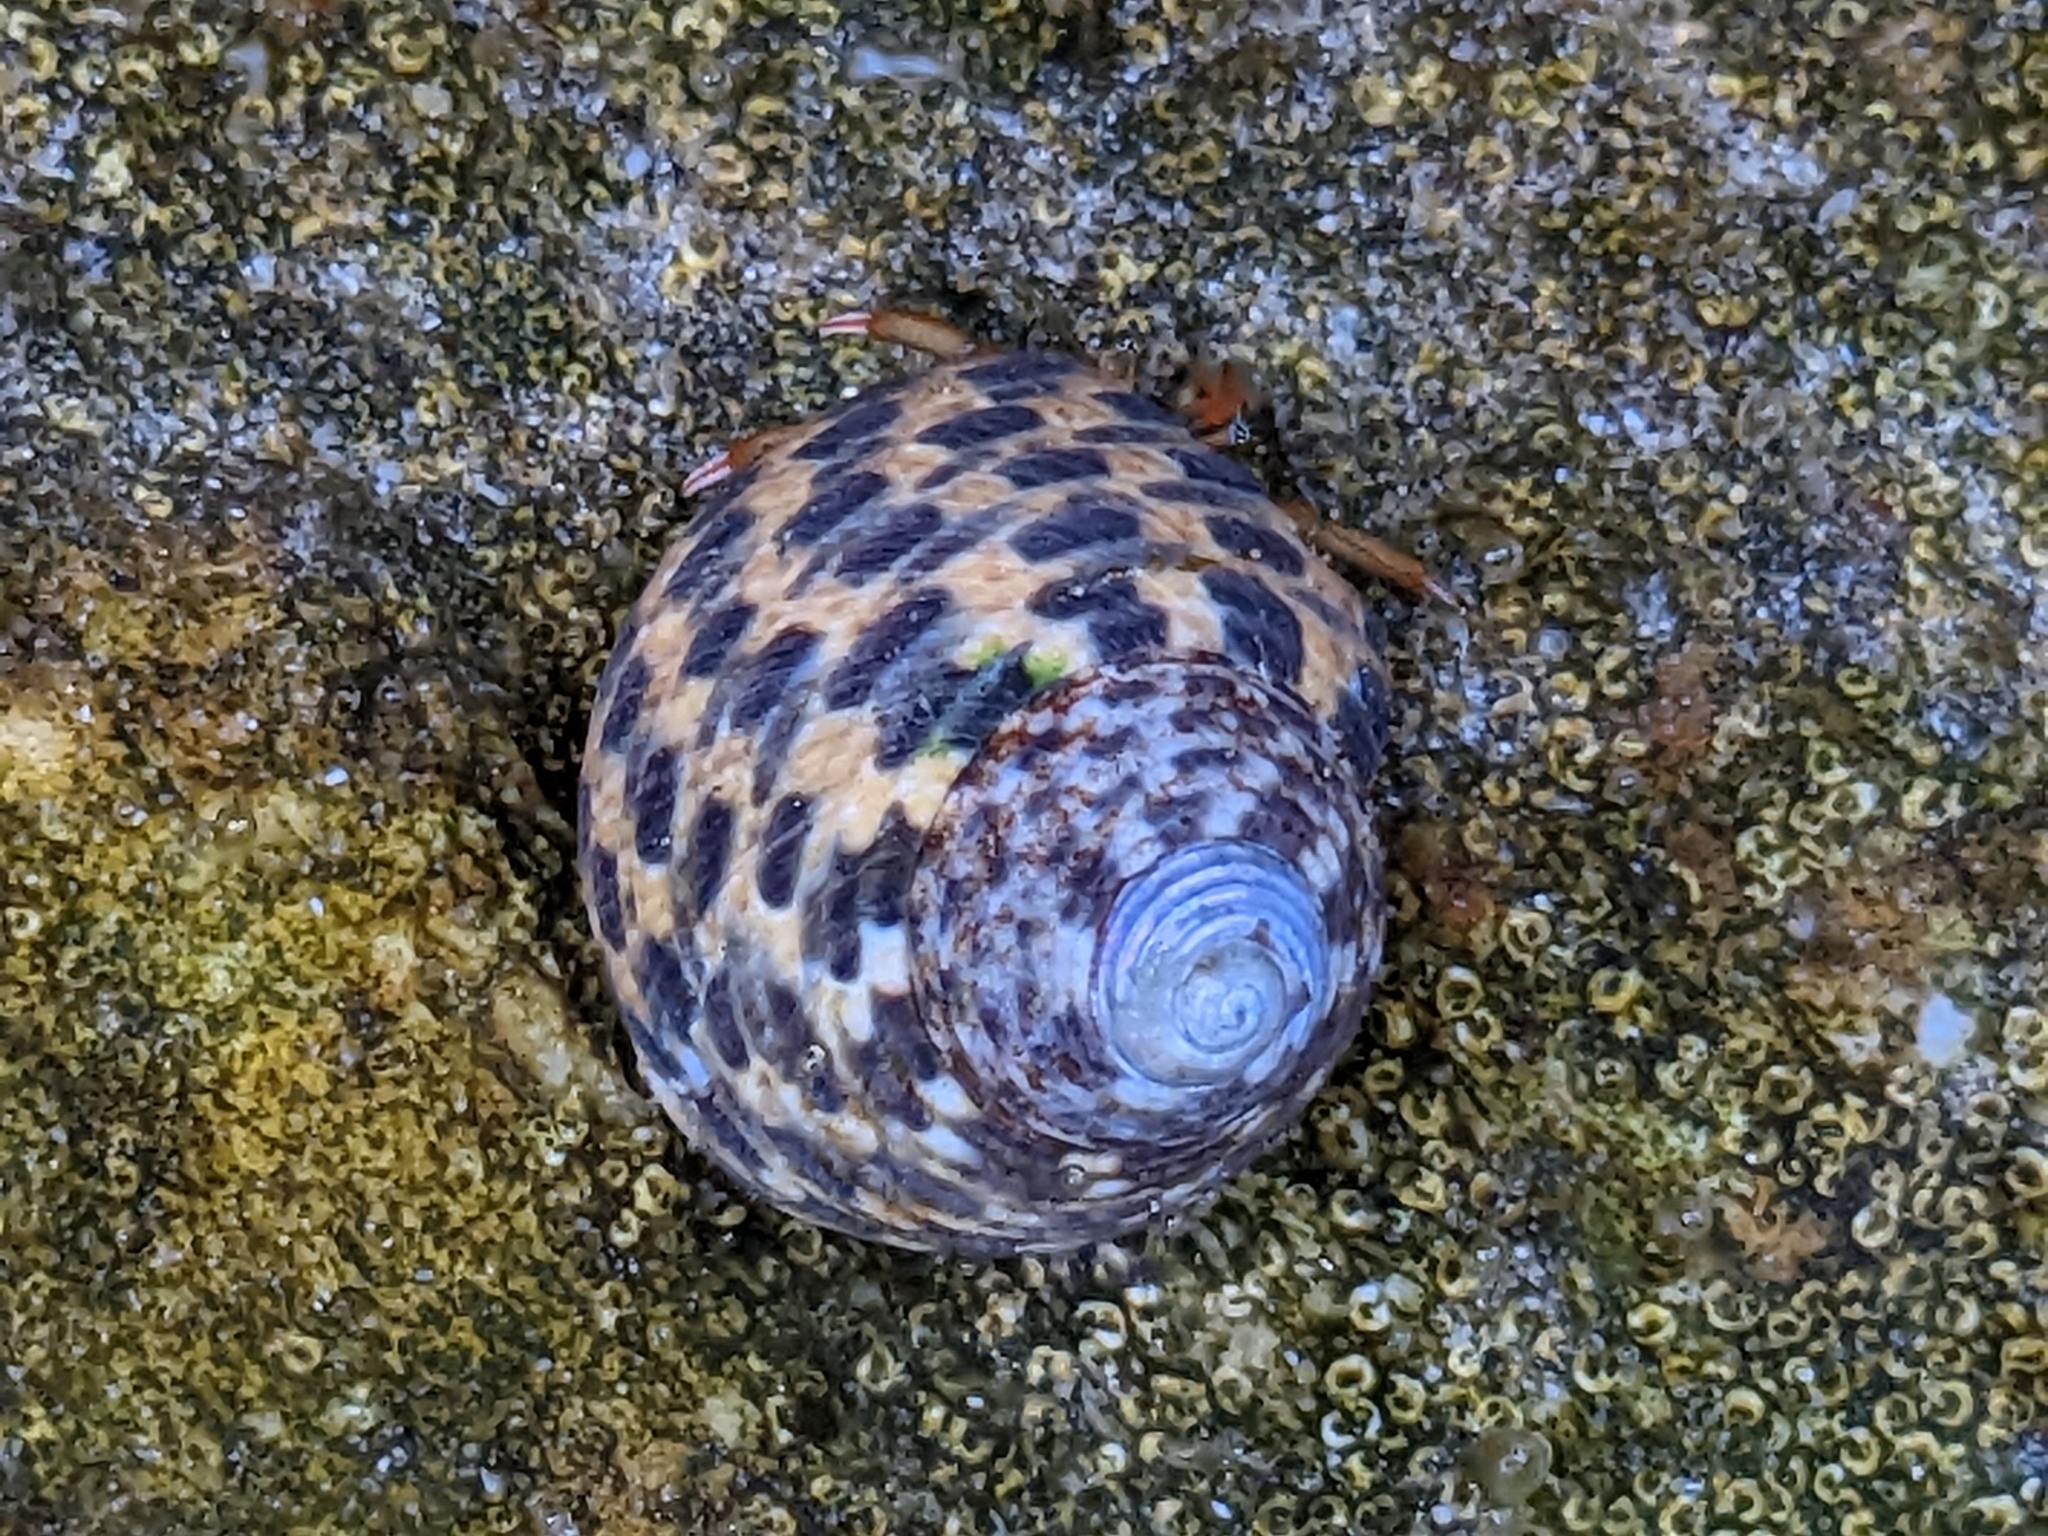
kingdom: Animalia
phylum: Arthropoda
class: Malacostraca
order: Decapoda
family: Diogenidae
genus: Clibanarius
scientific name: Clibanarius erythropus
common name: Hermit crab
